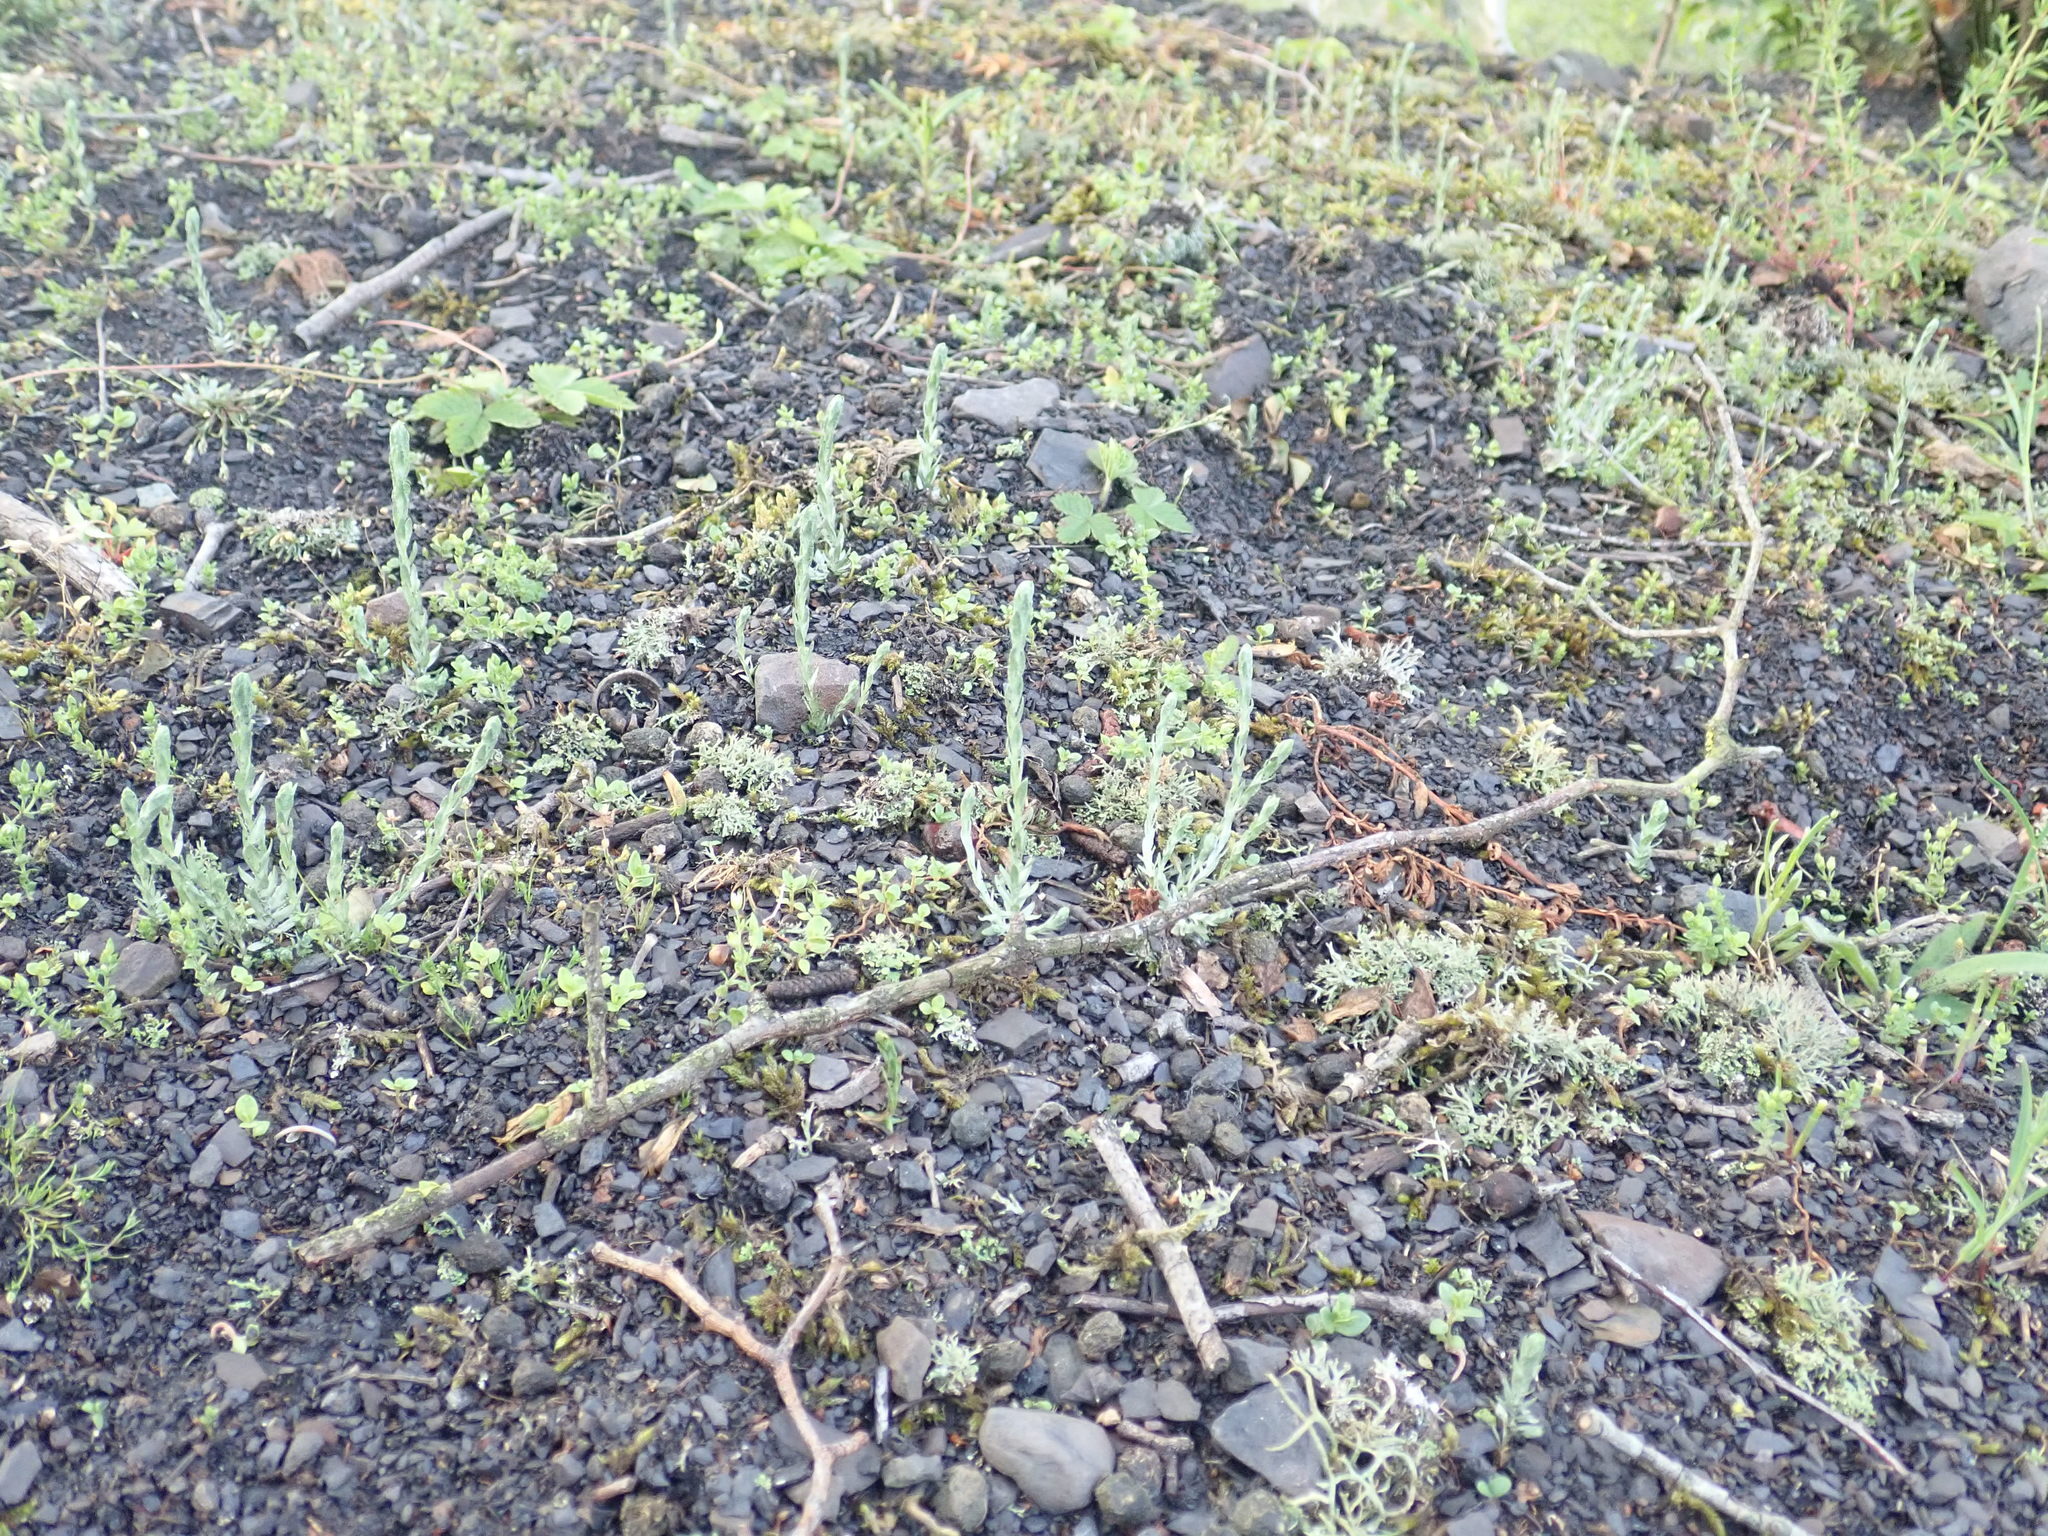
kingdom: Plantae
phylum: Tracheophyta
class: Magnoliopsida
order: Asterales
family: Asteraceae
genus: Logfia
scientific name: Logfia minima
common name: Little cottonrose
